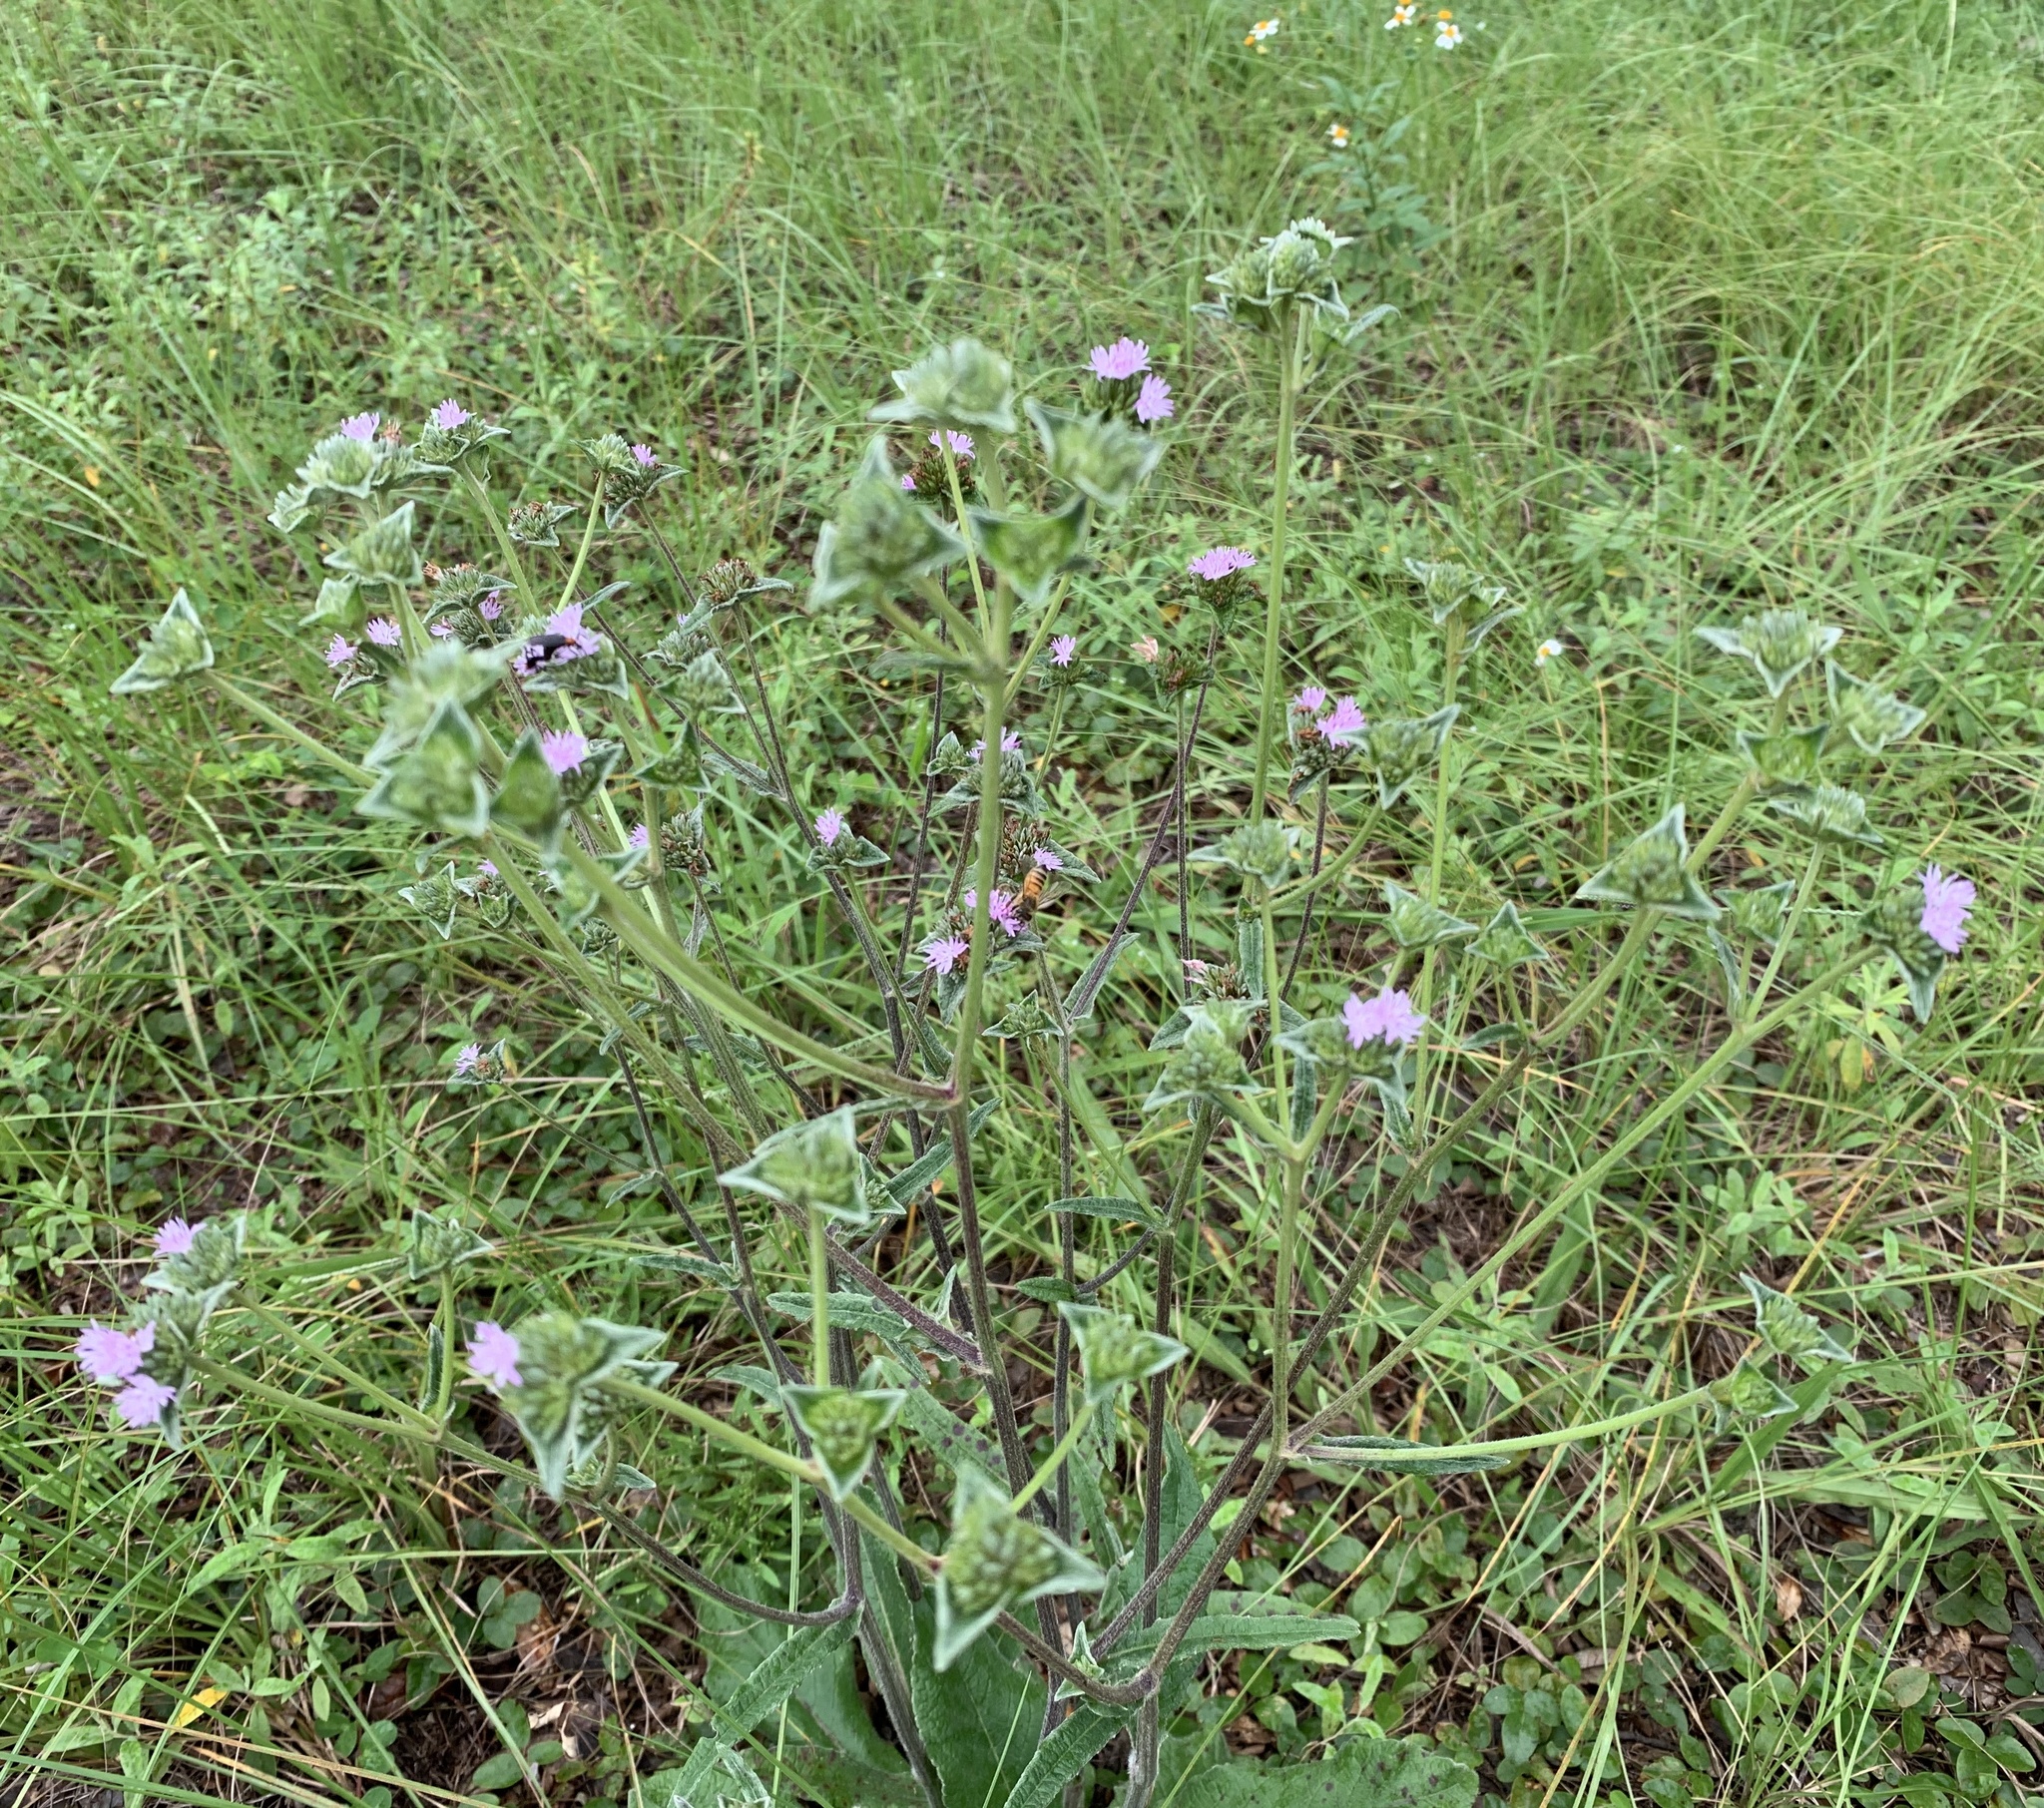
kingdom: Plantae
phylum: Tracheophyta
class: Magnoliopsida
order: Asterales
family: Asteraceae
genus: Elephantopus
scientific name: Elephantopus elatus
